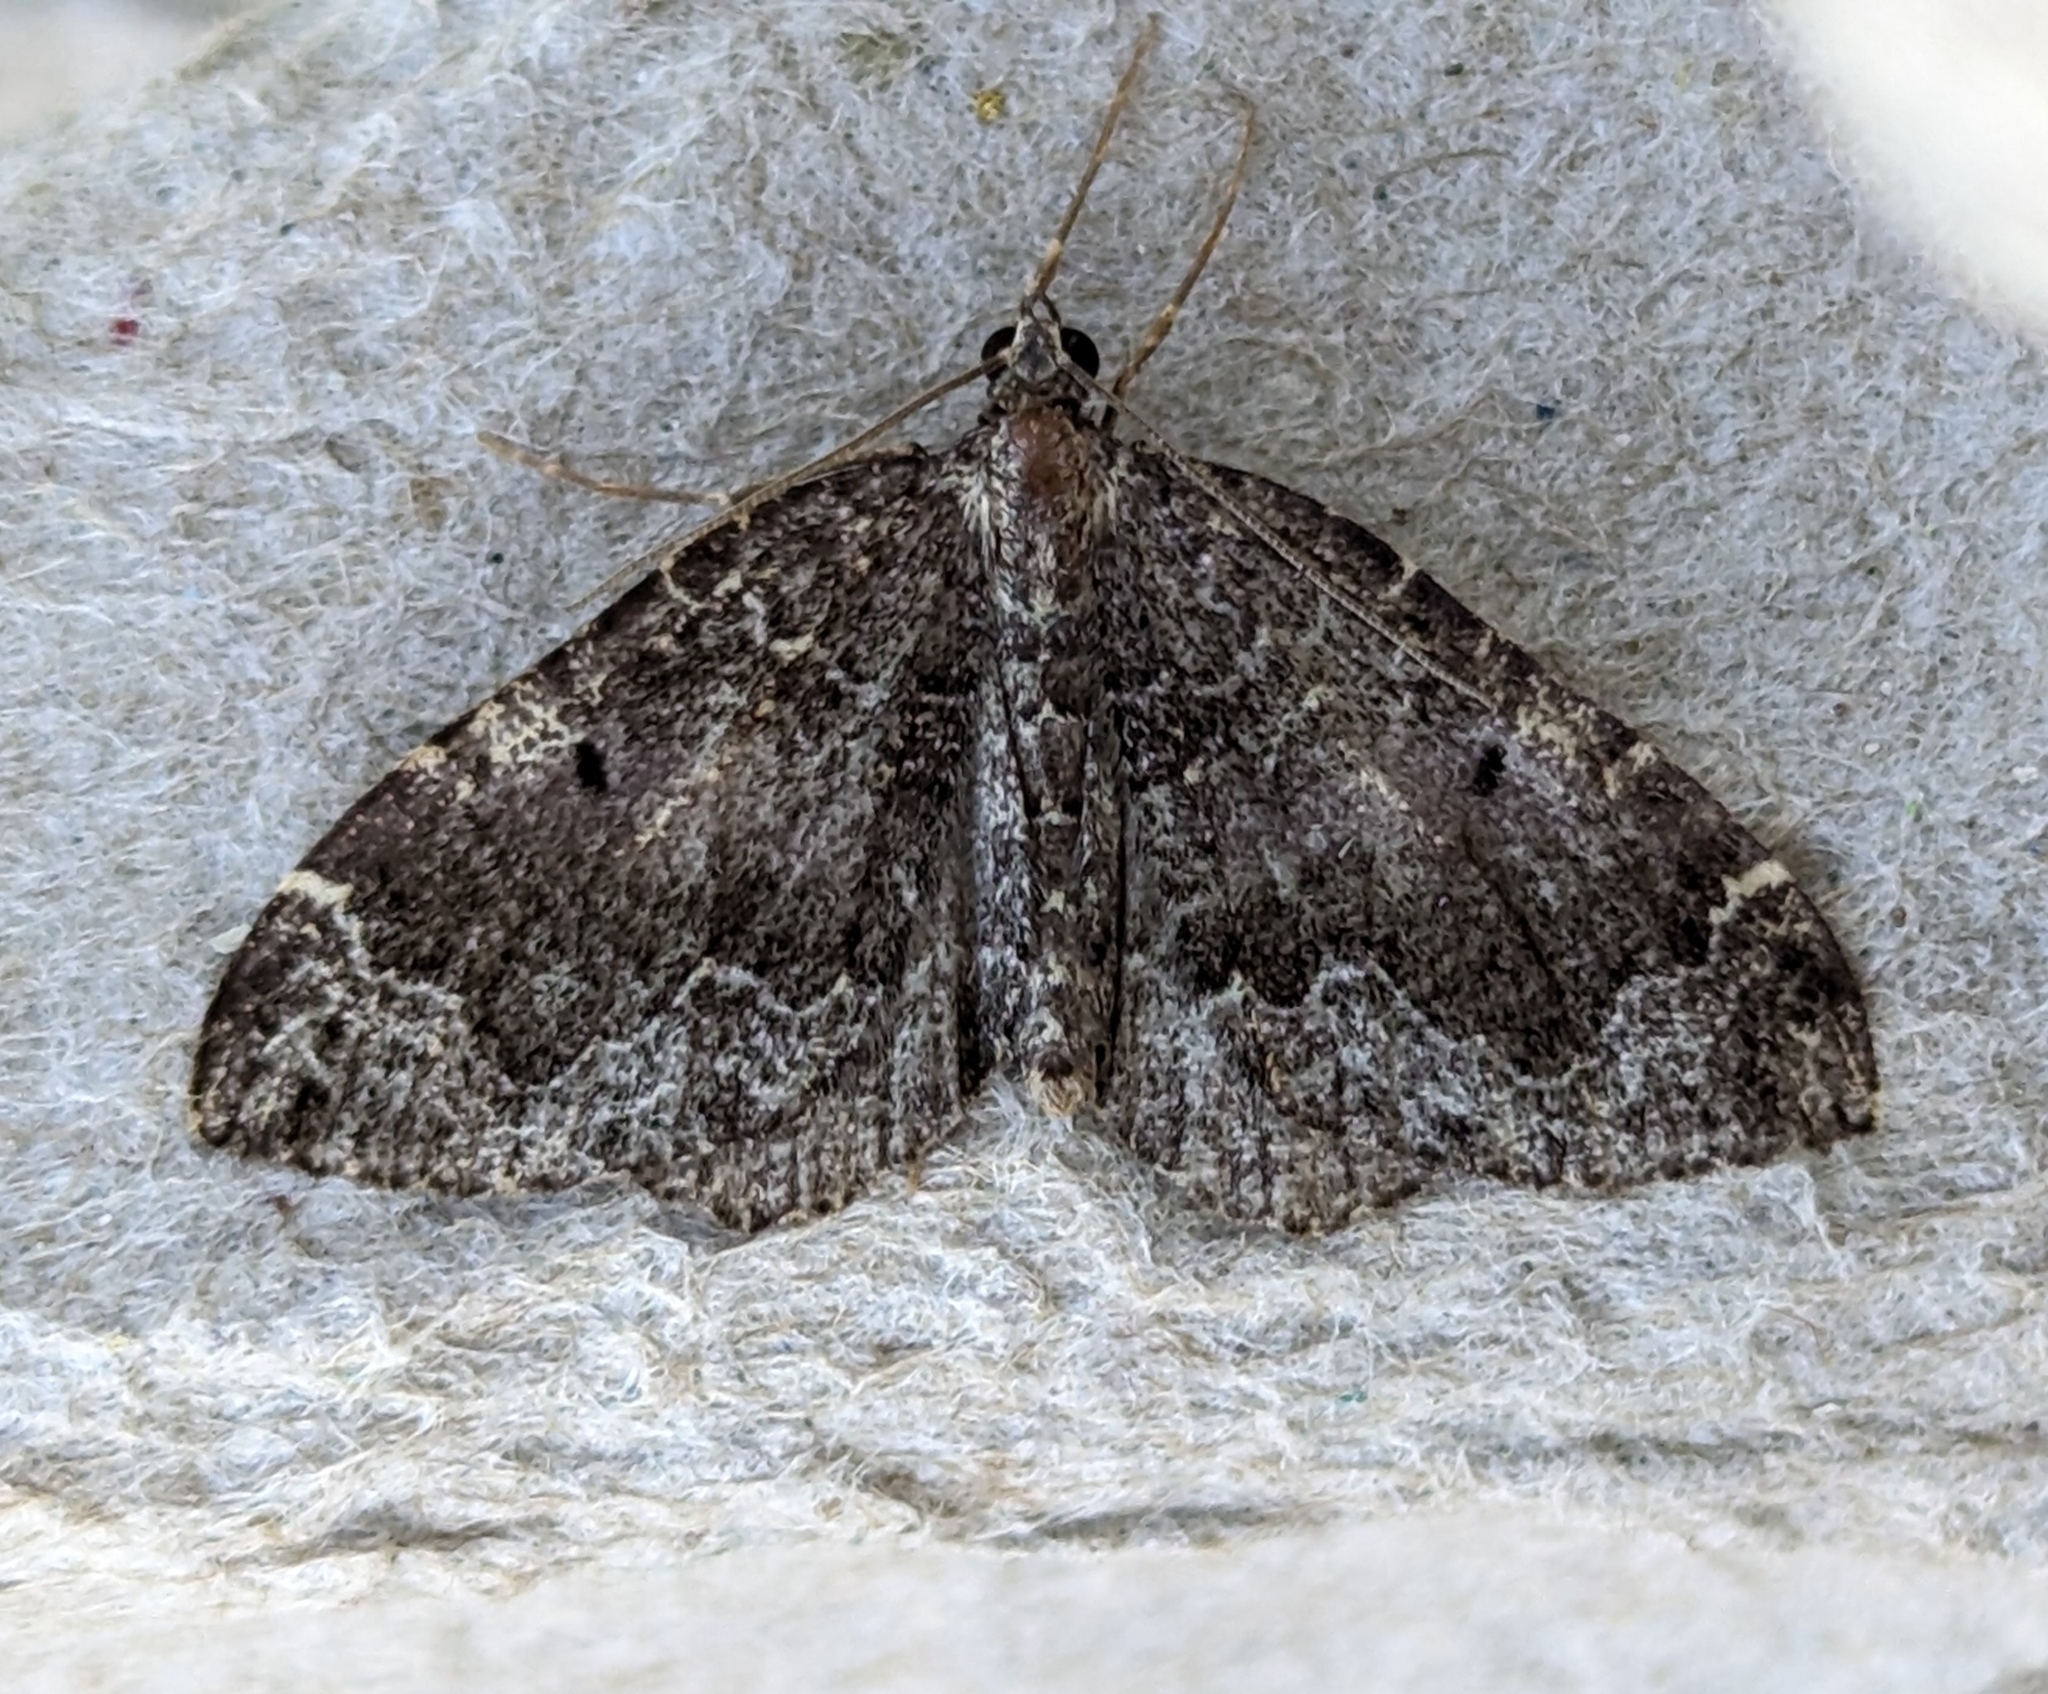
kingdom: Animalia
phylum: Arthropoda
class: Insecta
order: Lepidoptera
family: Geometridae
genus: Eustroma
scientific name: Eustroma semiatrata
